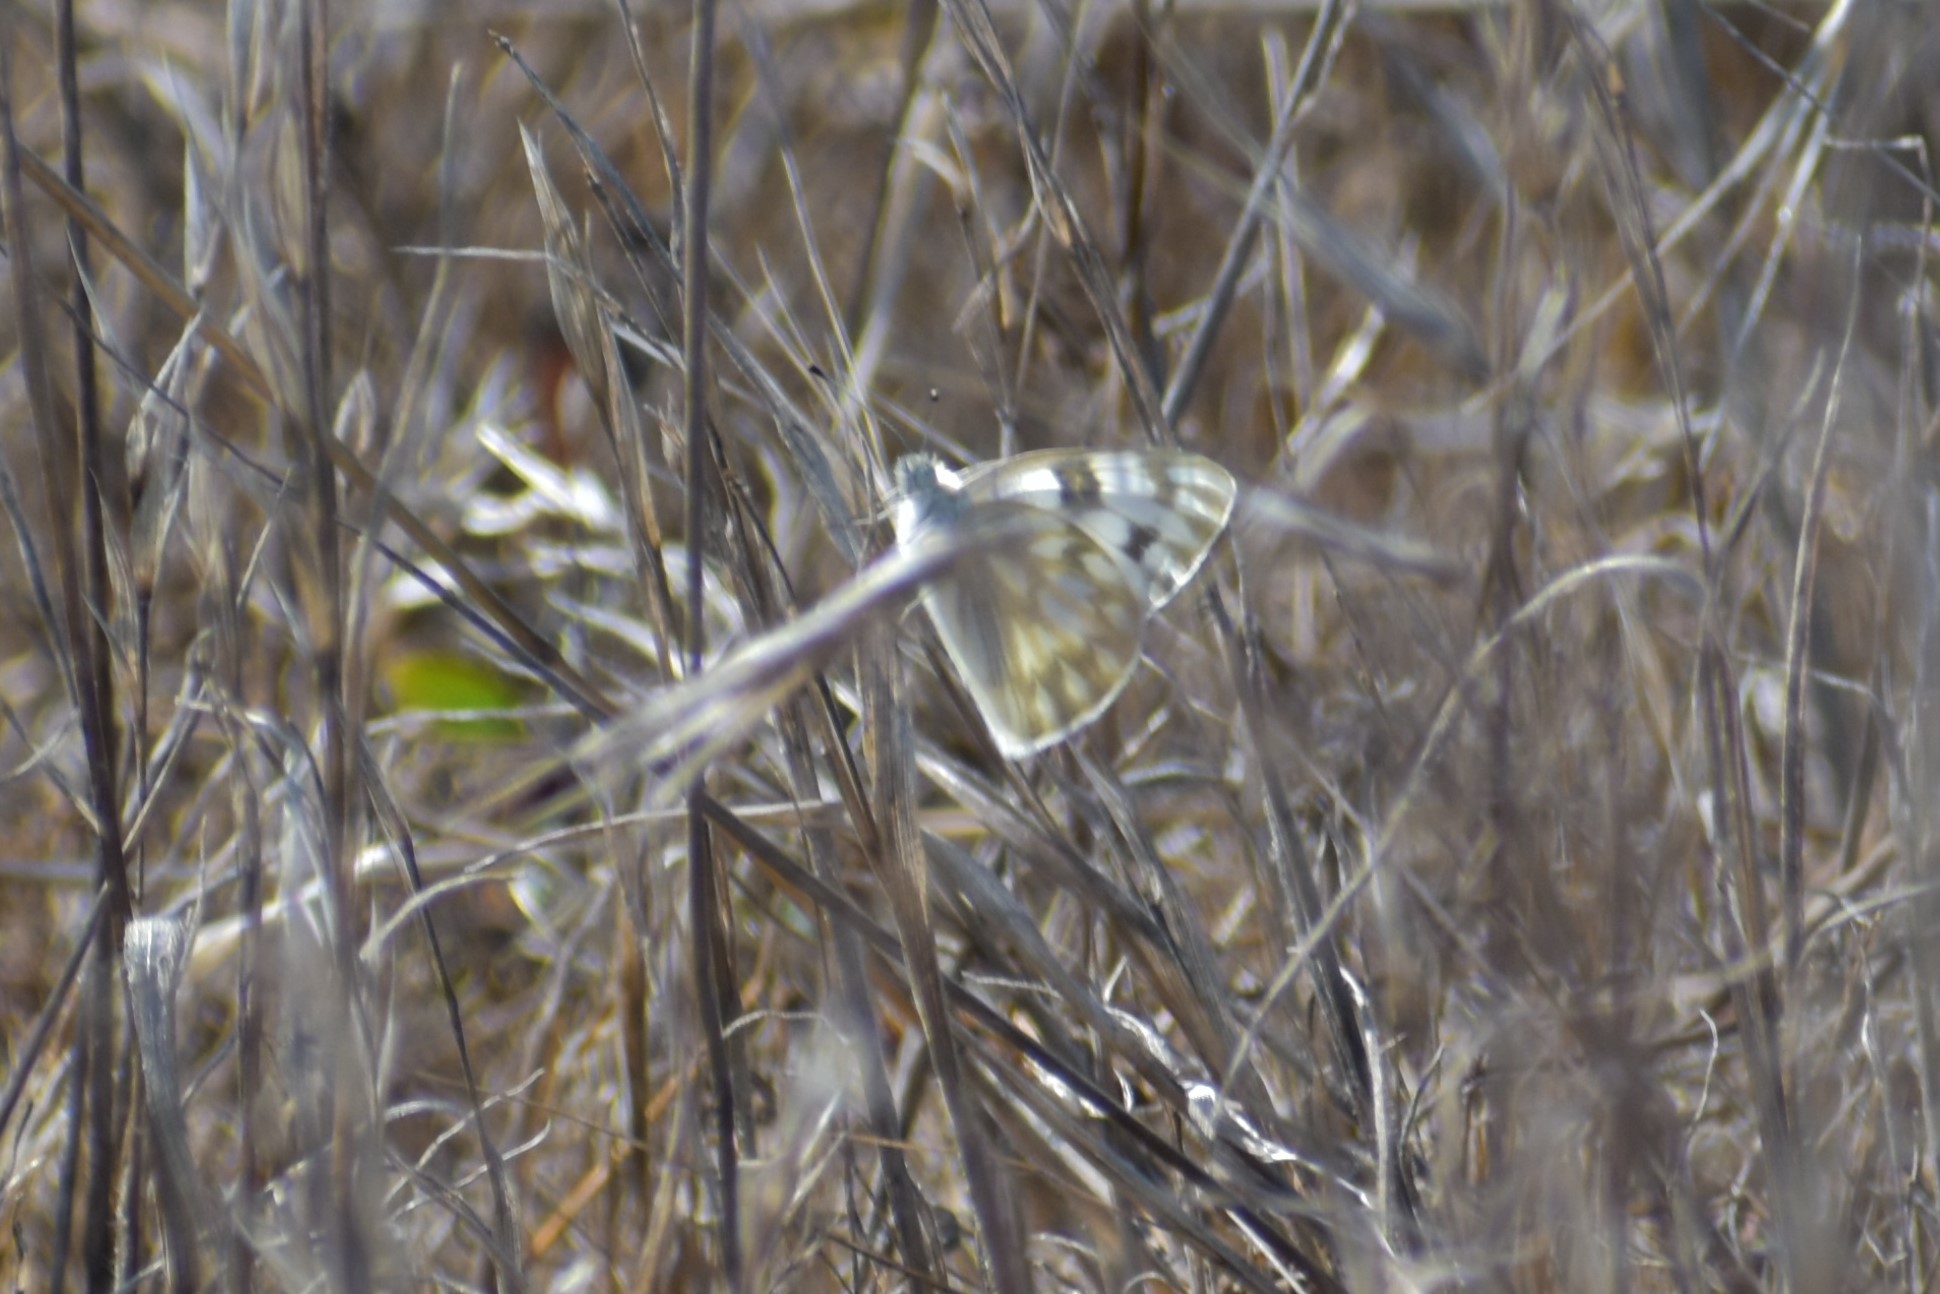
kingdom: Animalia
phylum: Arthropoda
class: Insecta
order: Lepidoptera
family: Pieridae
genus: Pontia
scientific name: Pontia protodice
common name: Checkered white
